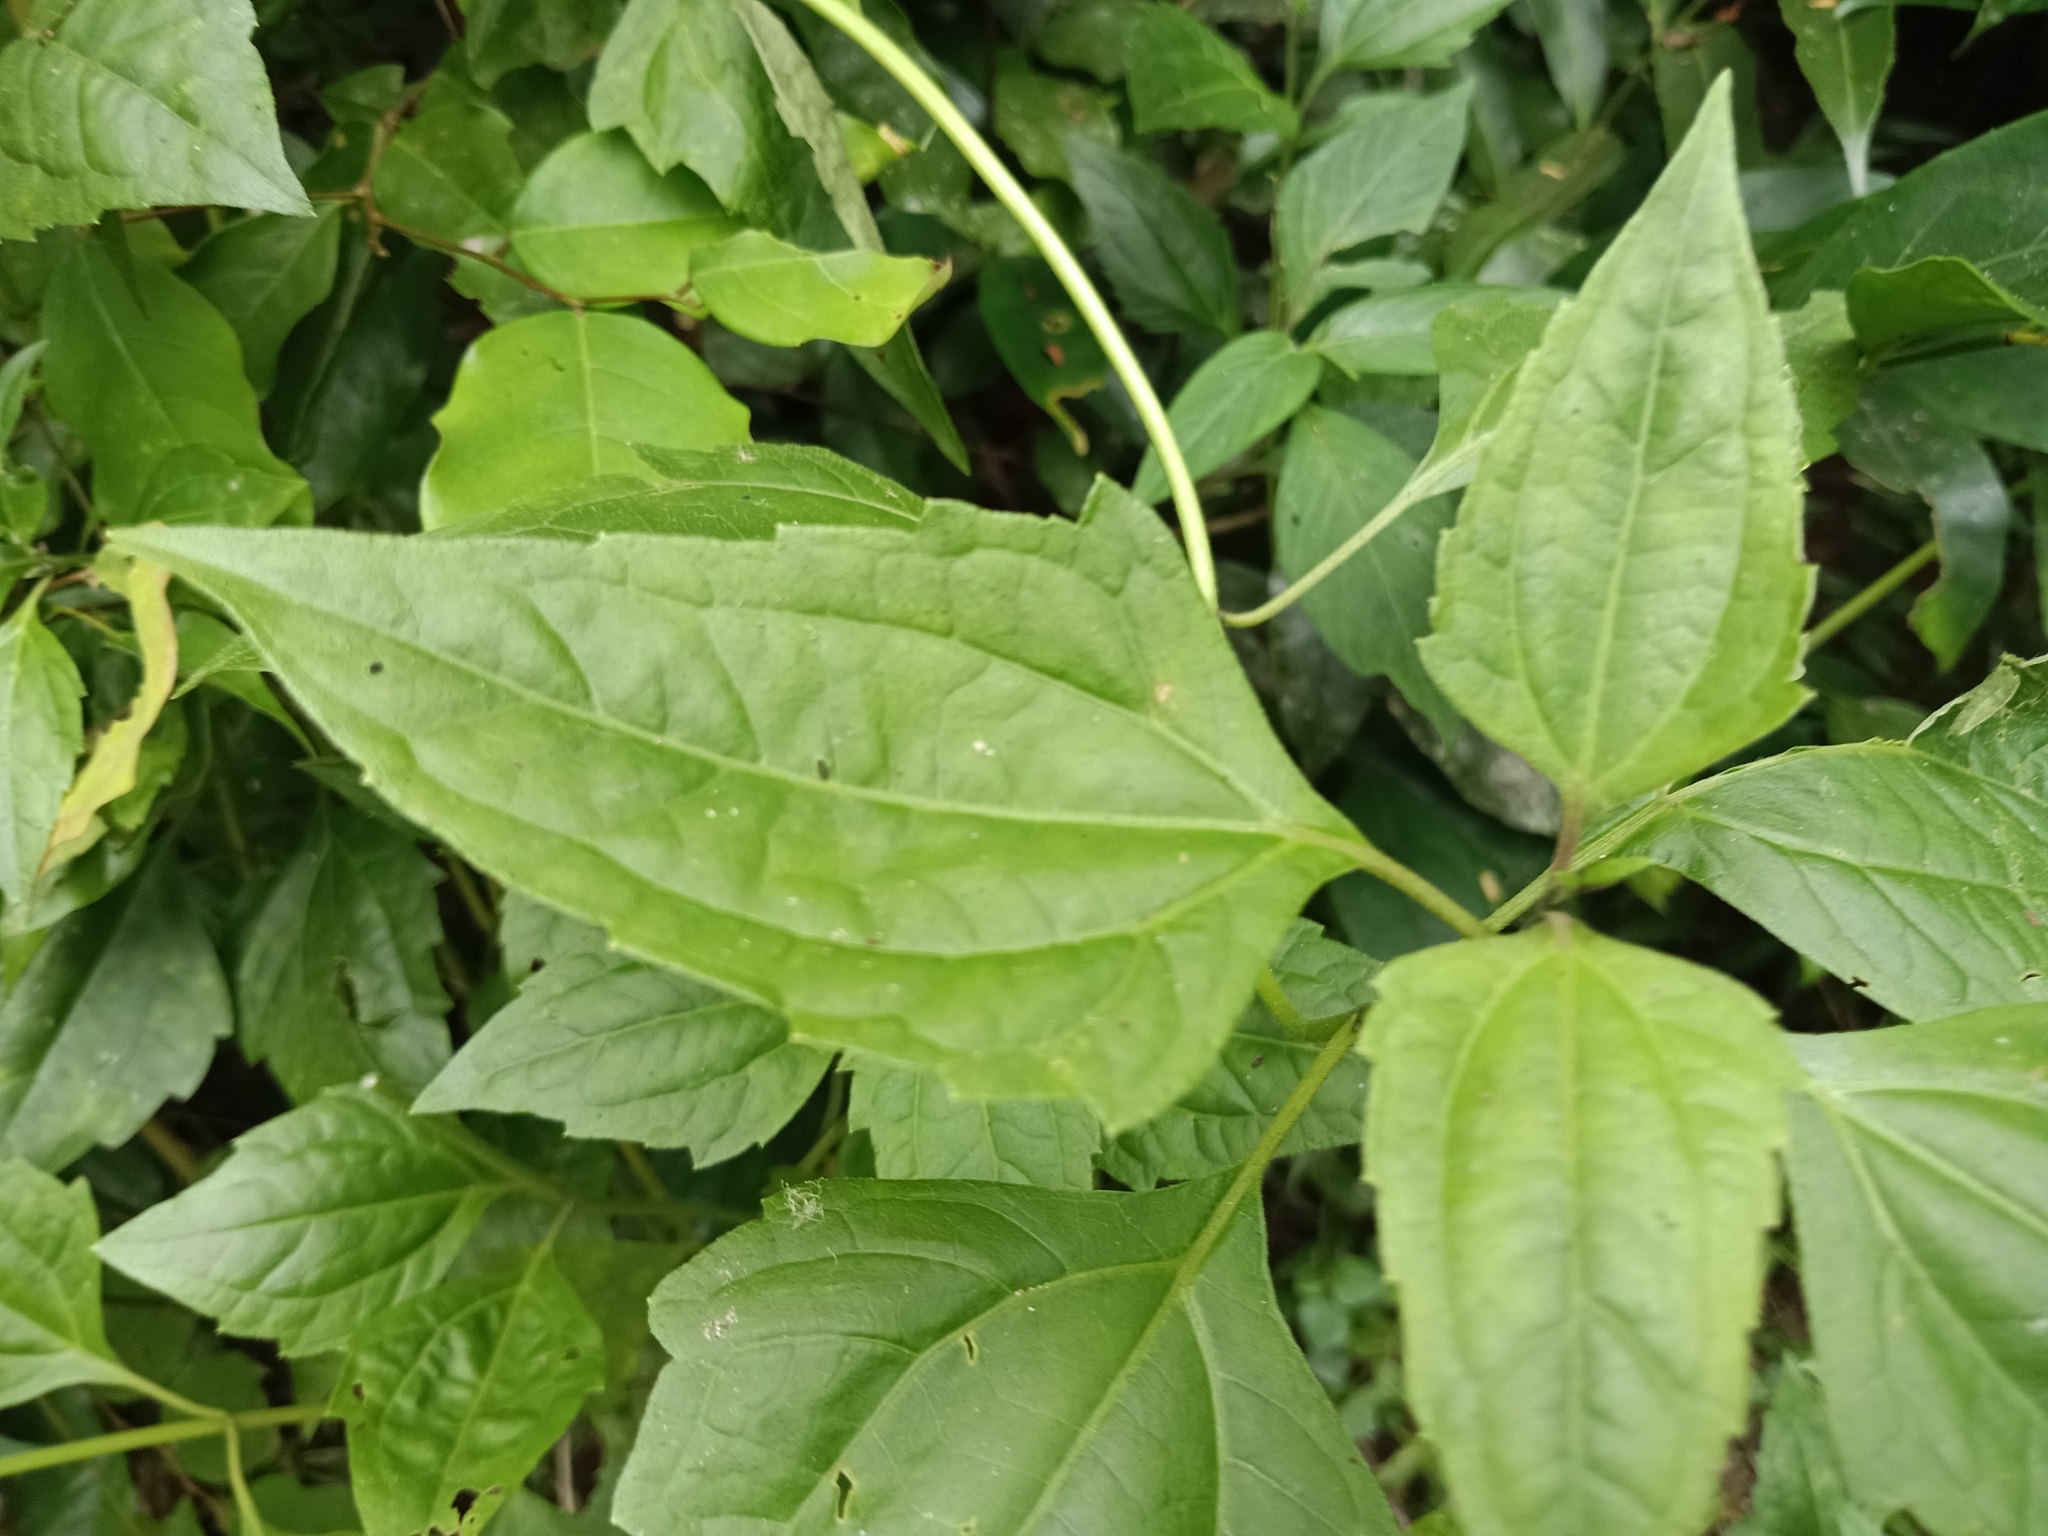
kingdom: Plantae
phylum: Tracheophyta
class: Magnoliopsida
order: Asterales
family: Asteraceae
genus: Chromolaena
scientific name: Chromolaena odorata
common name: Siamweed
